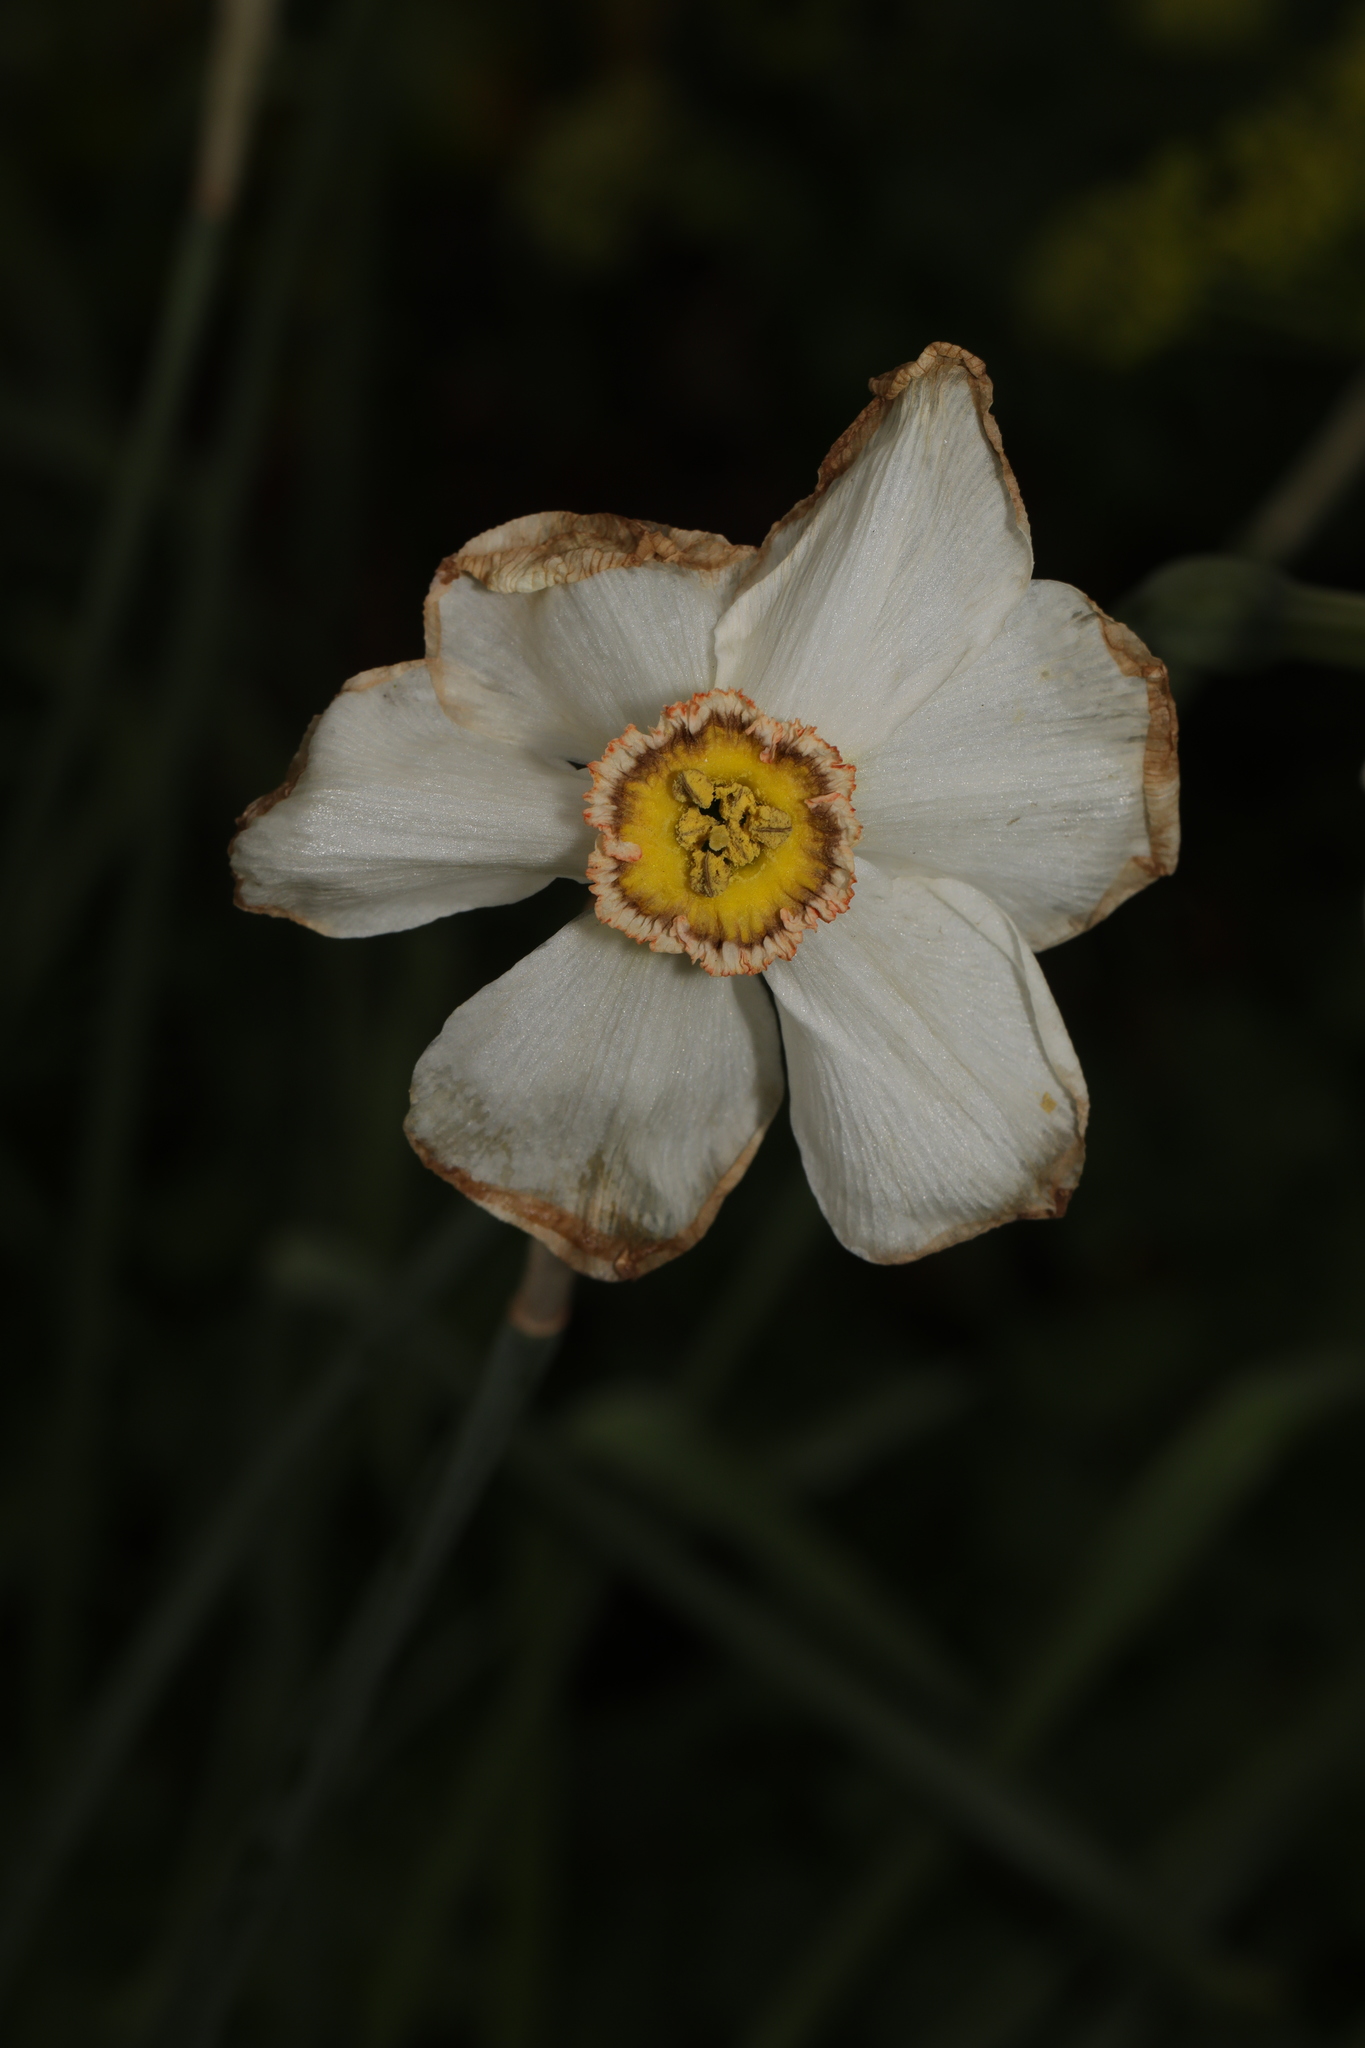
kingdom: Plantae
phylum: Tracheophyta
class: Liliopsida
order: Asparagales
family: Amaryllidaceae
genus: Narcissus
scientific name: Narcissus poeticus
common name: Pheasant's-eye daffodil
